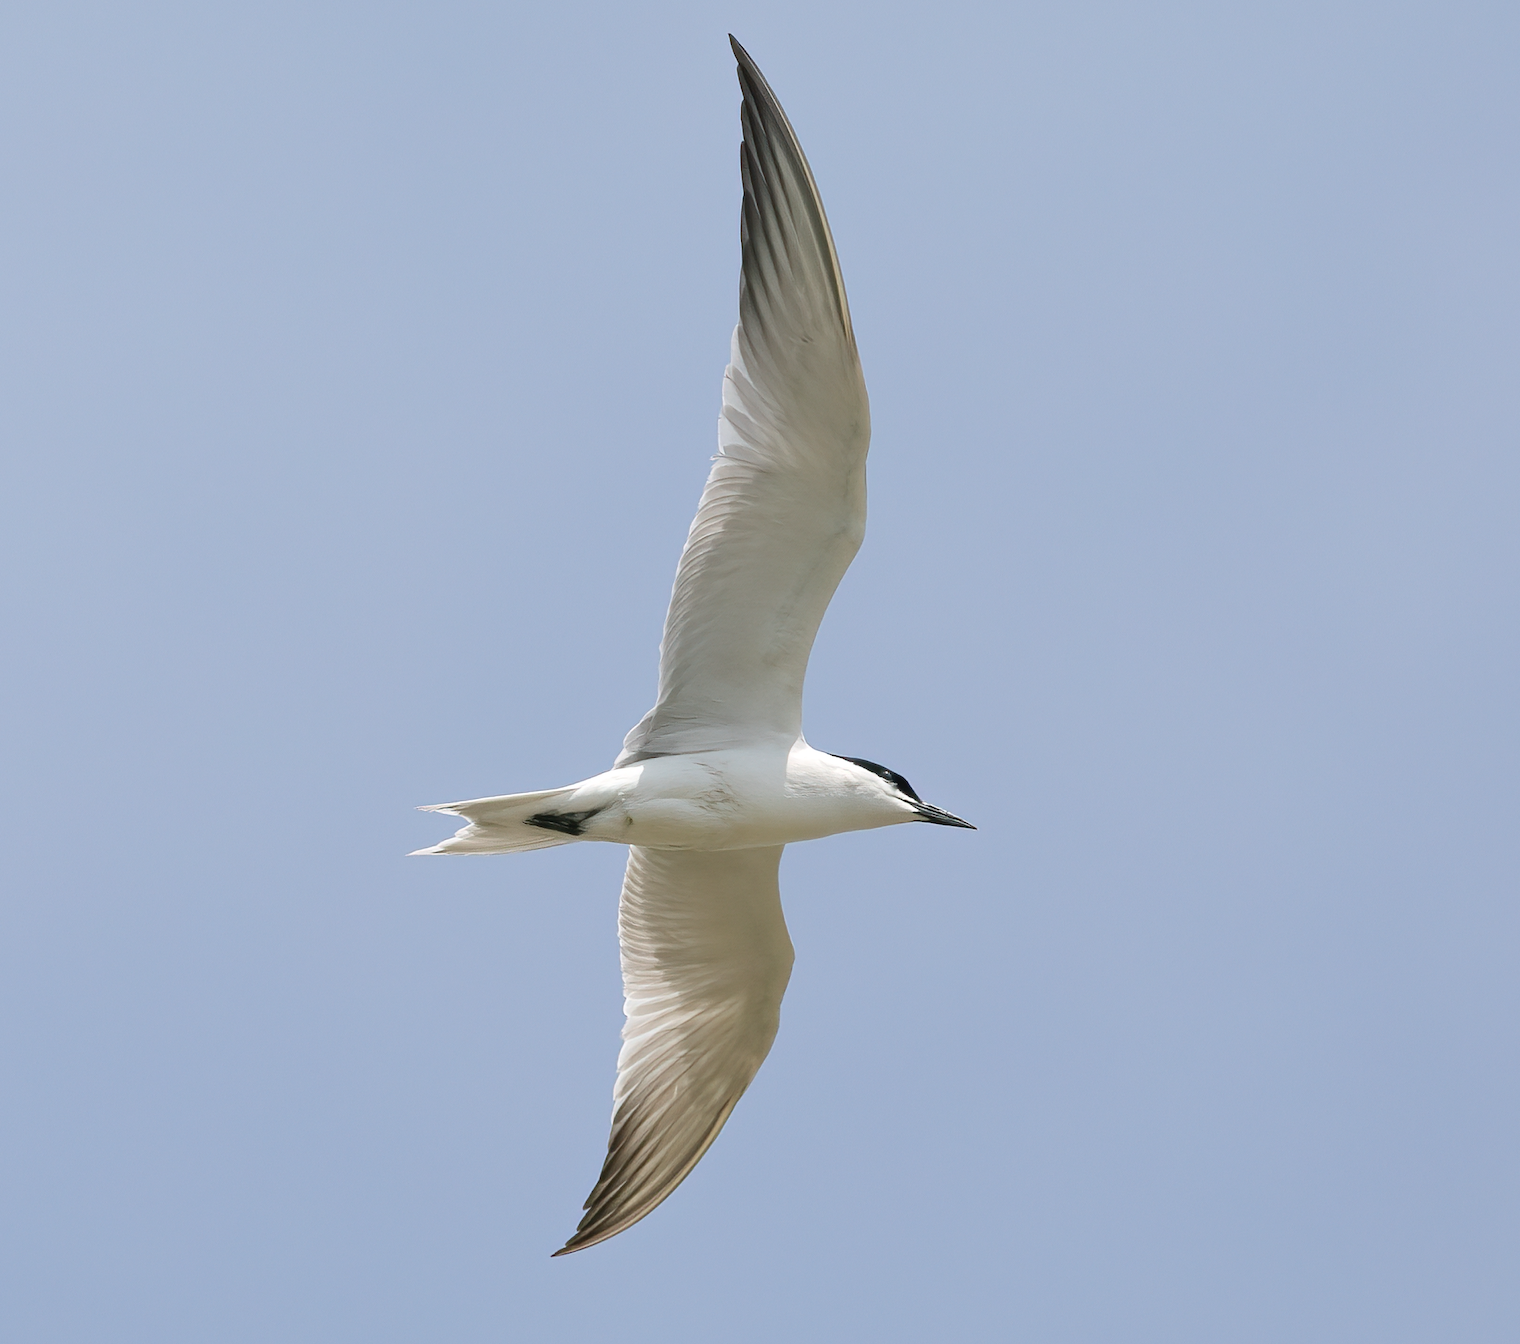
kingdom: Animalia
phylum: Chordata
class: Aves
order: Charadriiformes
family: Laridae
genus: Gelochelidon
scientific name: Gelochelidon nilotica
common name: Gull-billed tern
